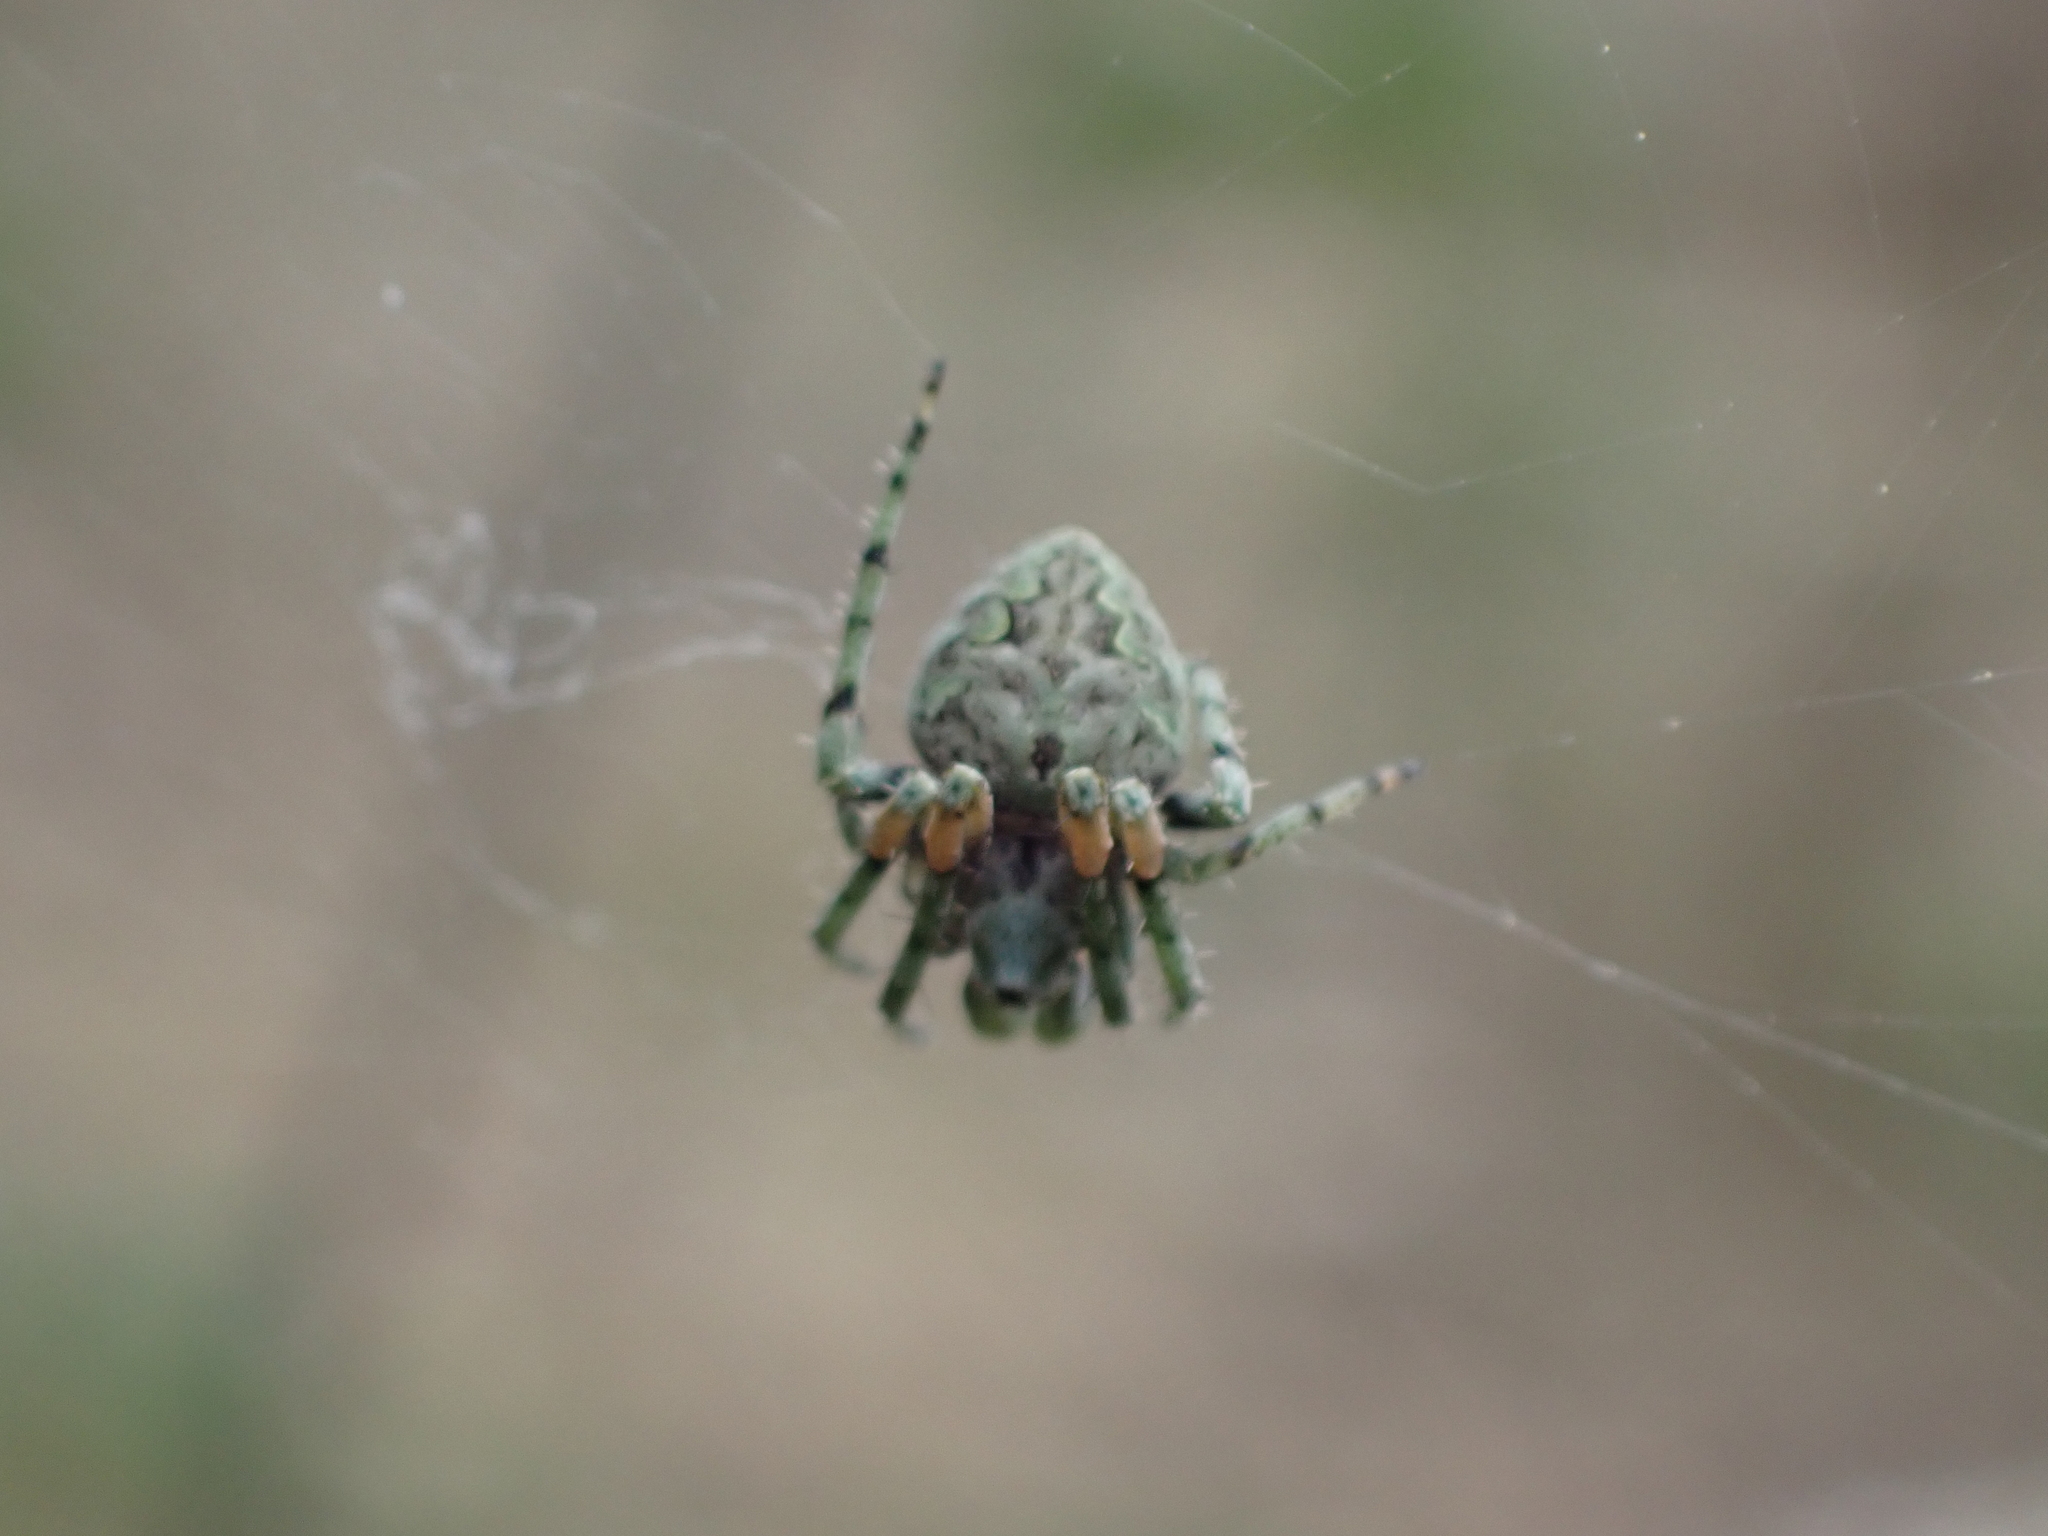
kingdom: Animalia
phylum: Arthropoda
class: Arachnida
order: Araneae
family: Araneidae
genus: Eustala
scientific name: Eustala anastera
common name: Orb weavers
